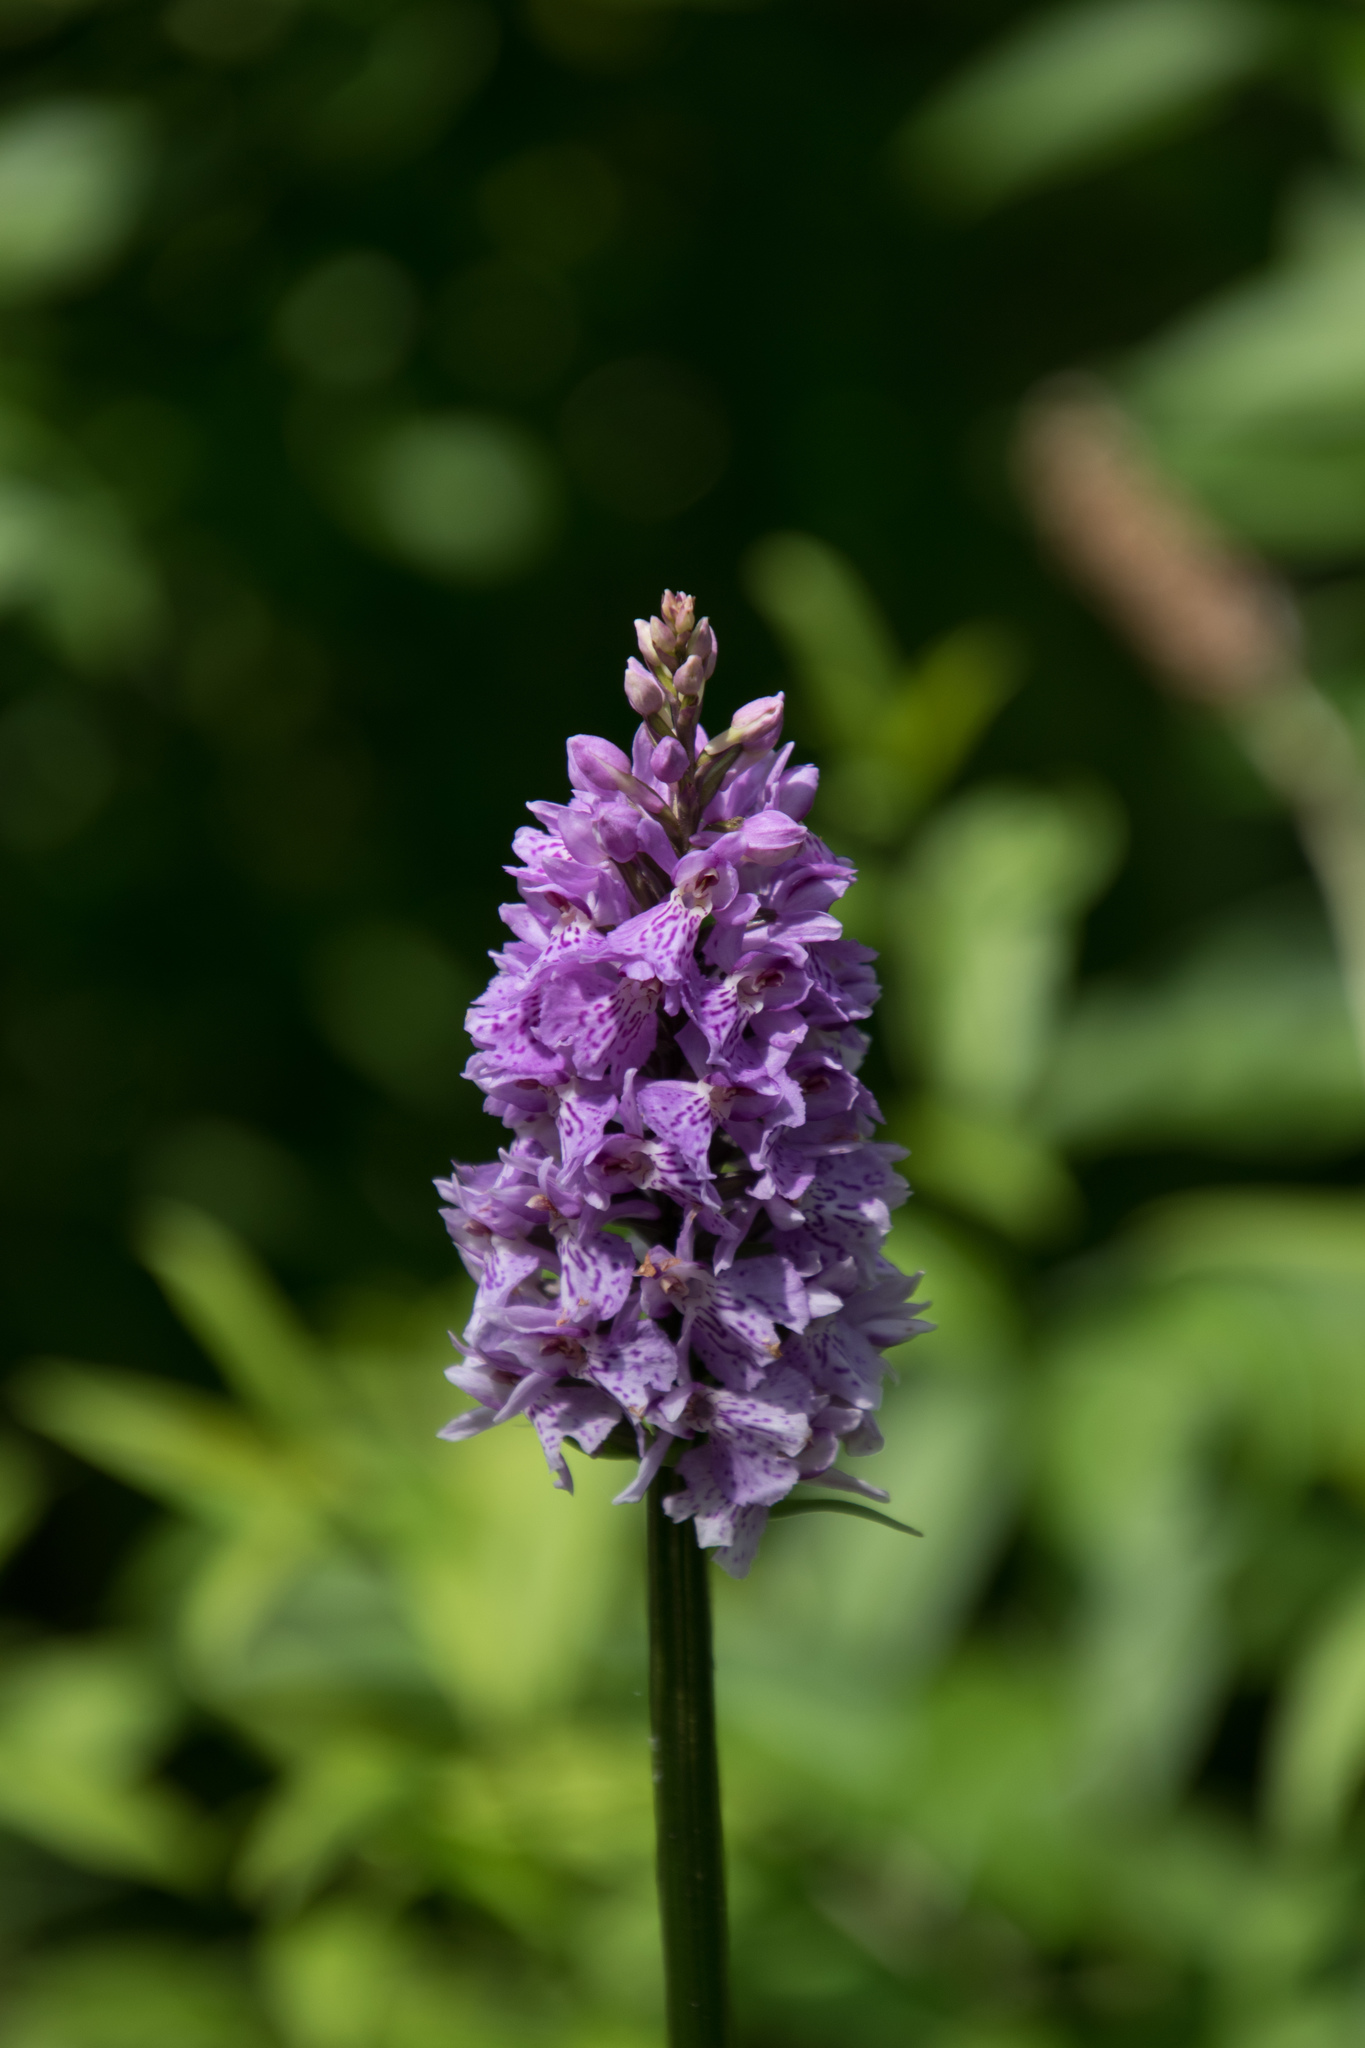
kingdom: Plantae
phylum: Tracheophyta
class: Liliopsida
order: Asparagales
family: Orchidaceae
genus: Dactylorhiza
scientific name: Dactylorhiza maculata
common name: Heath spotted-orchid
